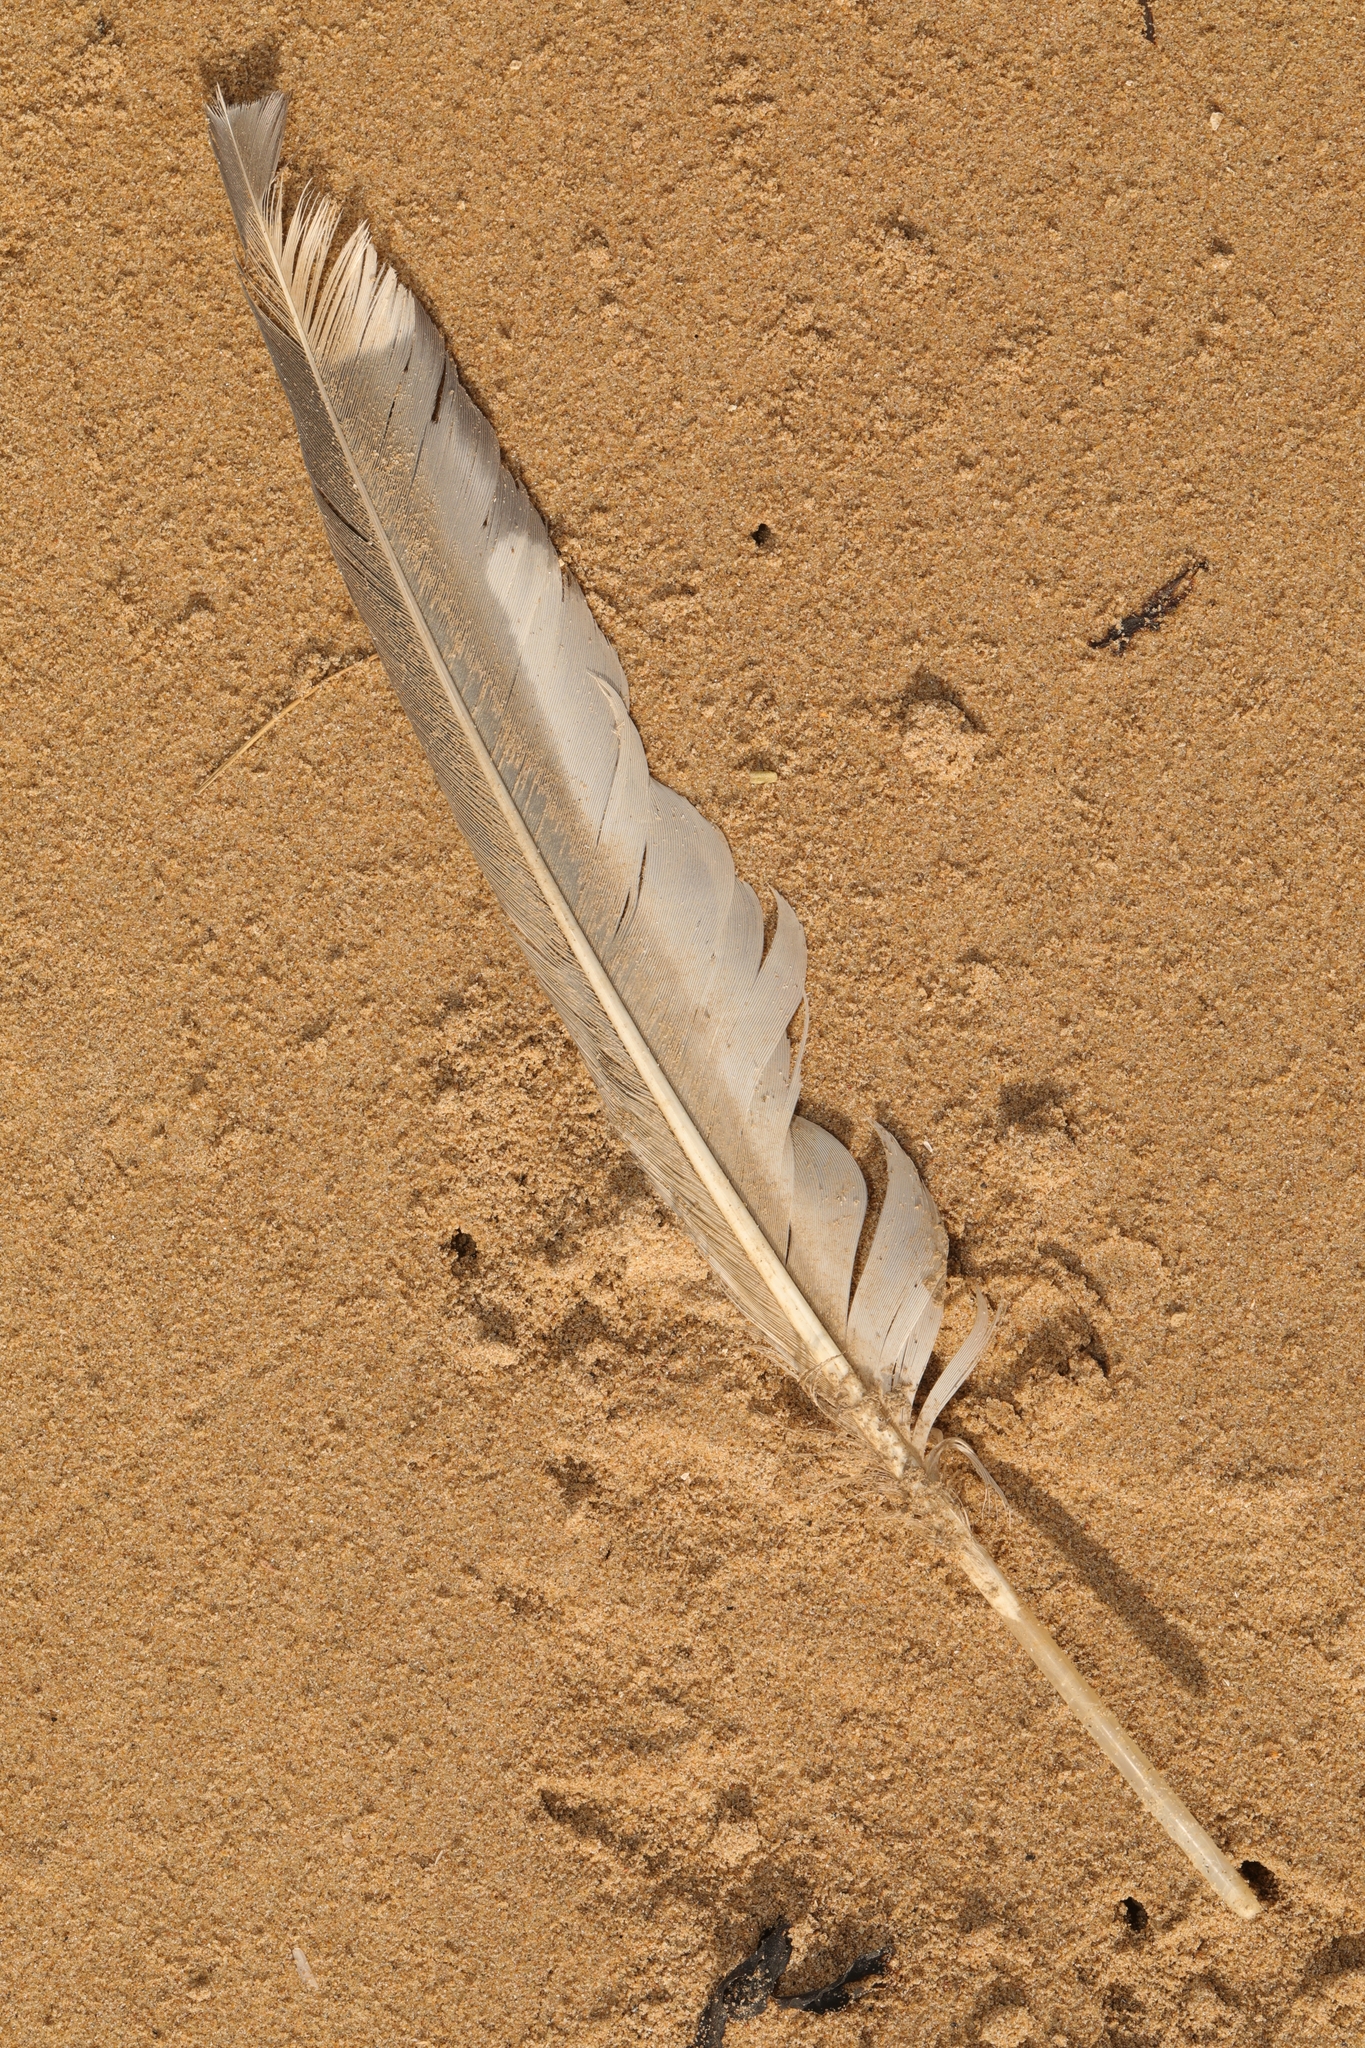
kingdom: Animalia
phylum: Chordata
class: Aves
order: Charadriiformes
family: Laridae
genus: Larus
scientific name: Larus
